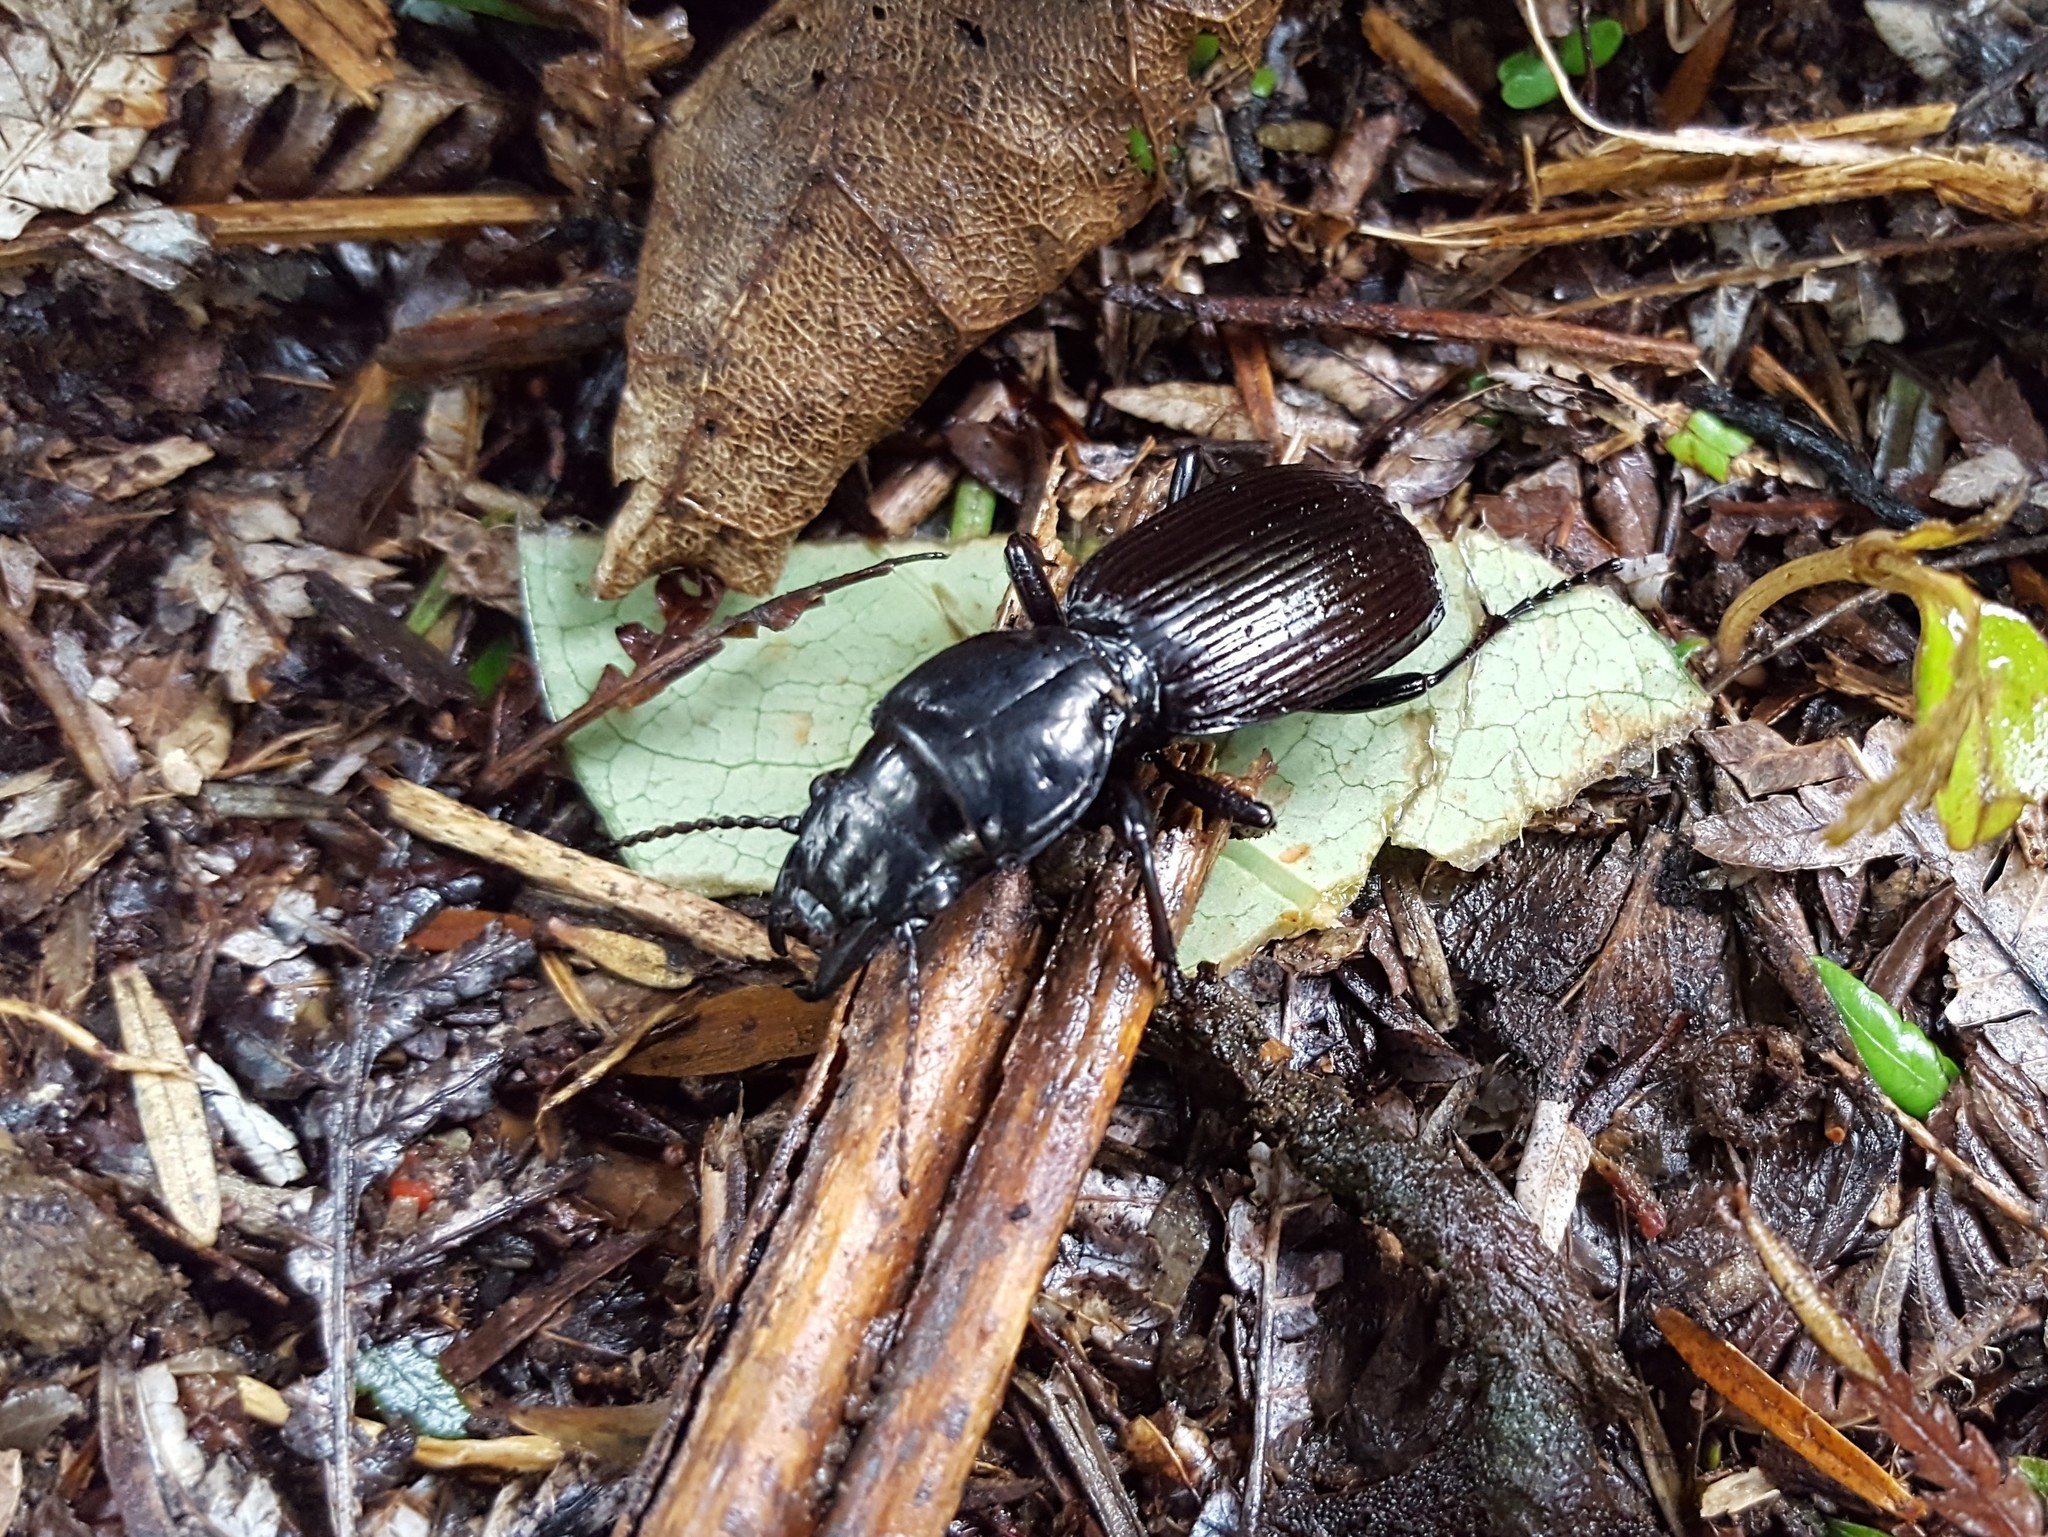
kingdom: Animalia
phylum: Arthropoda
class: Insecta
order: Coleoptera
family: Carabidae
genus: Mecodema
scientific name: Mecodema spiniferum
